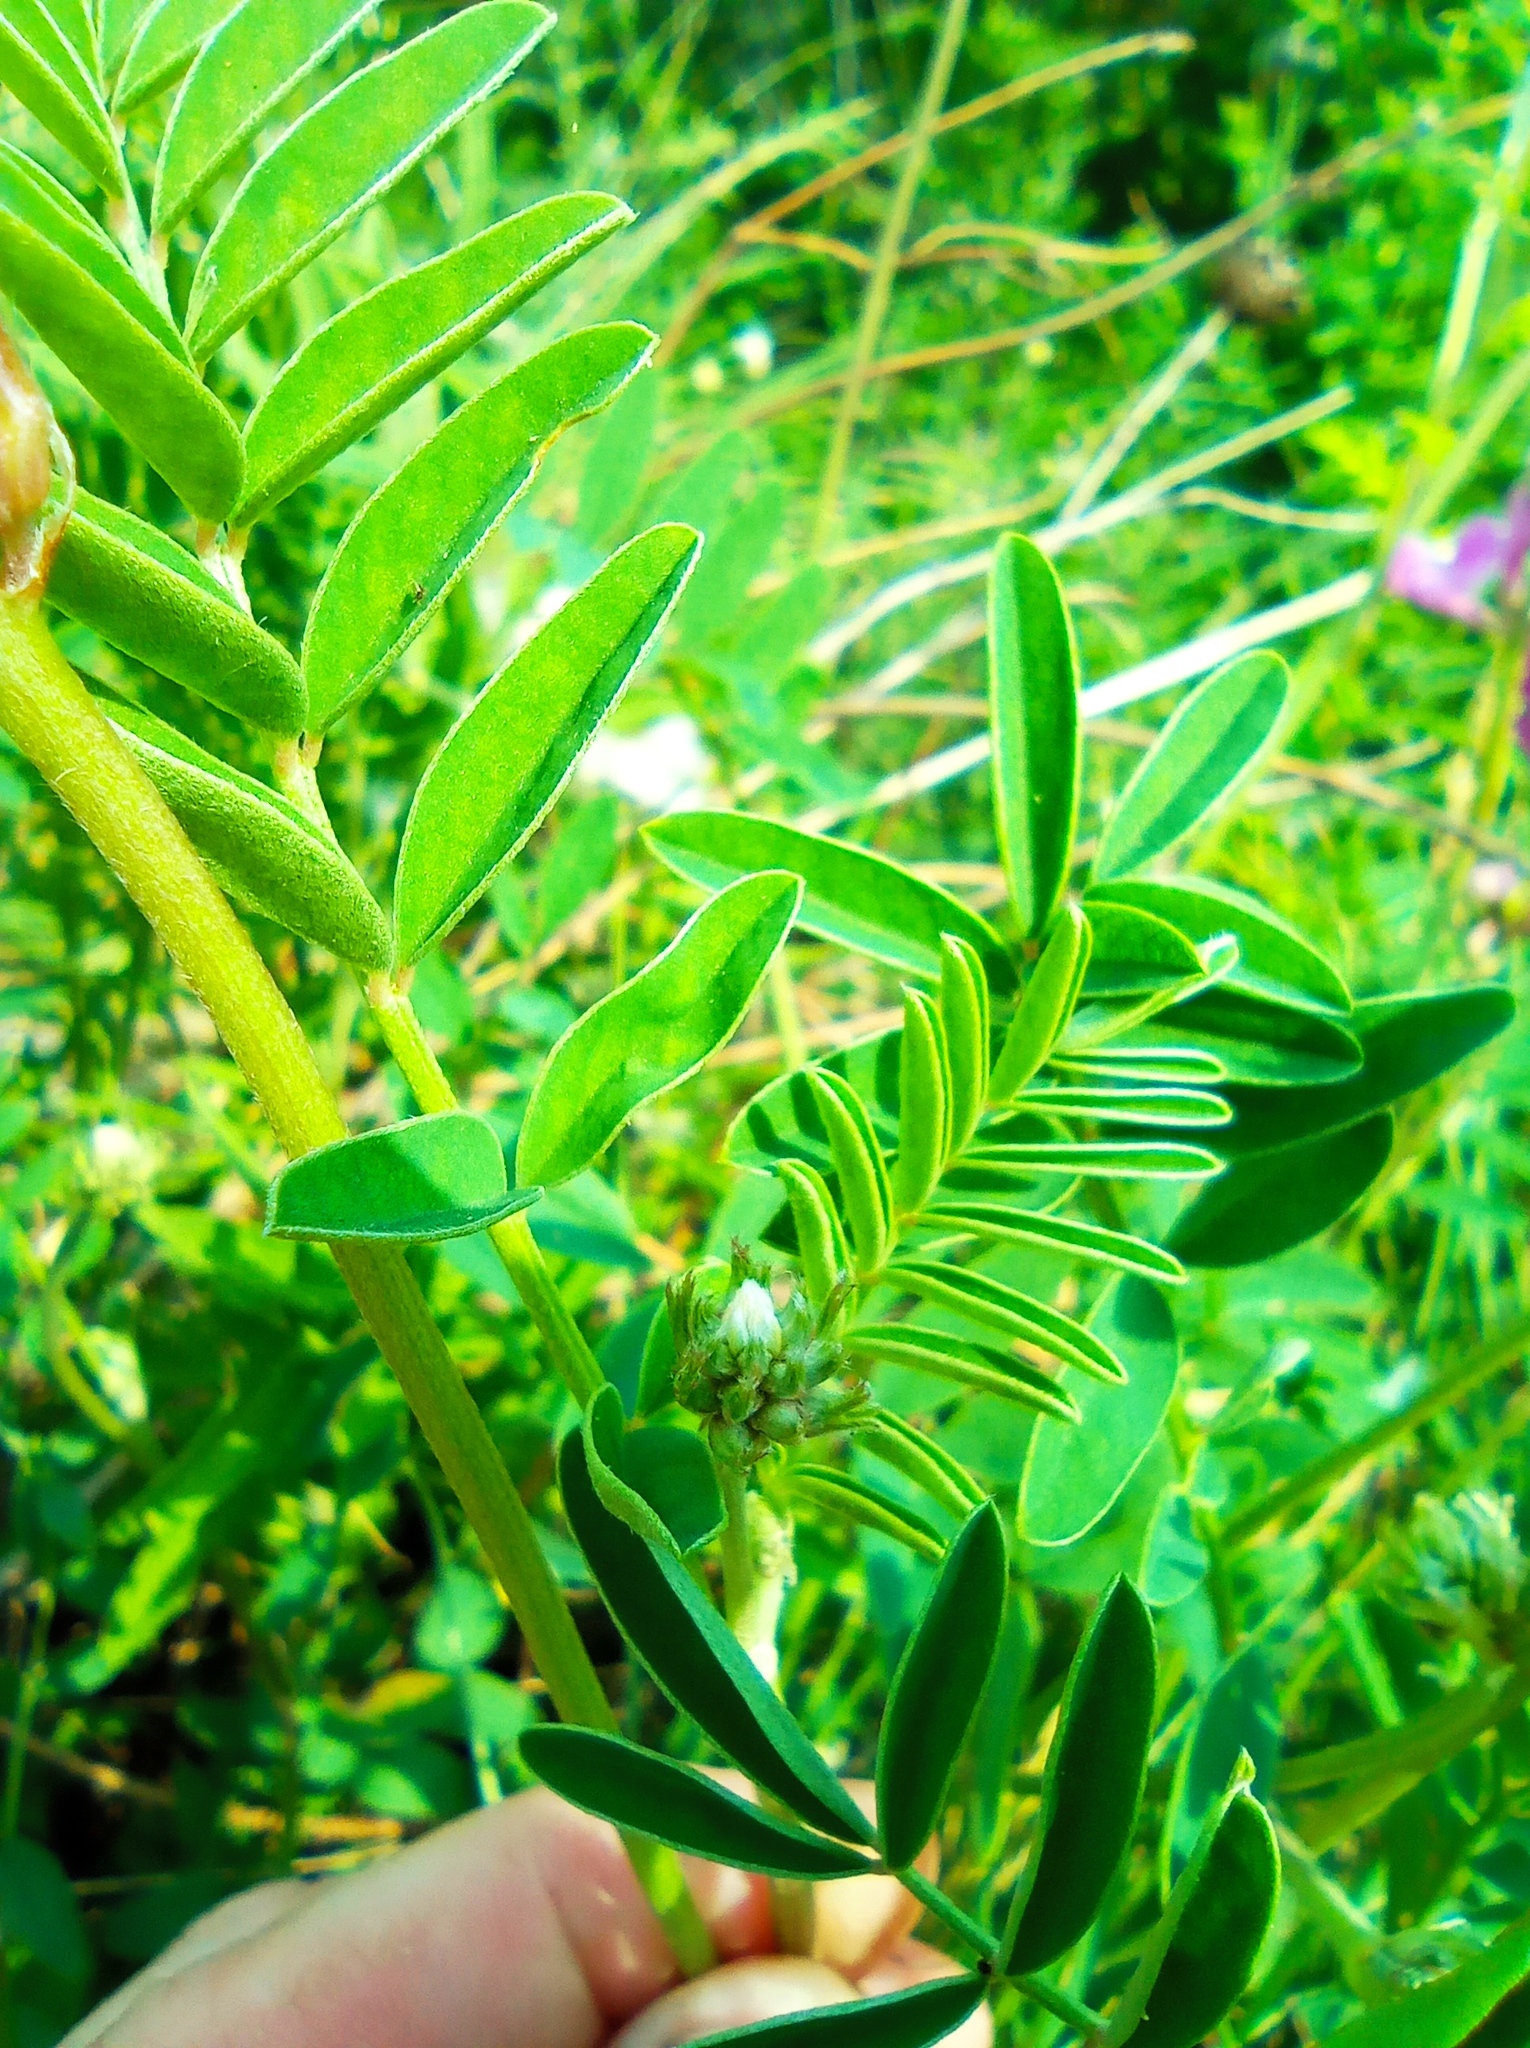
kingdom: Plantae
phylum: Tracheophyta
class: Magnoliopsida
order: Fabales
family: Fabaceae
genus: Hedysarum
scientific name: Hedysarum gmelinii
